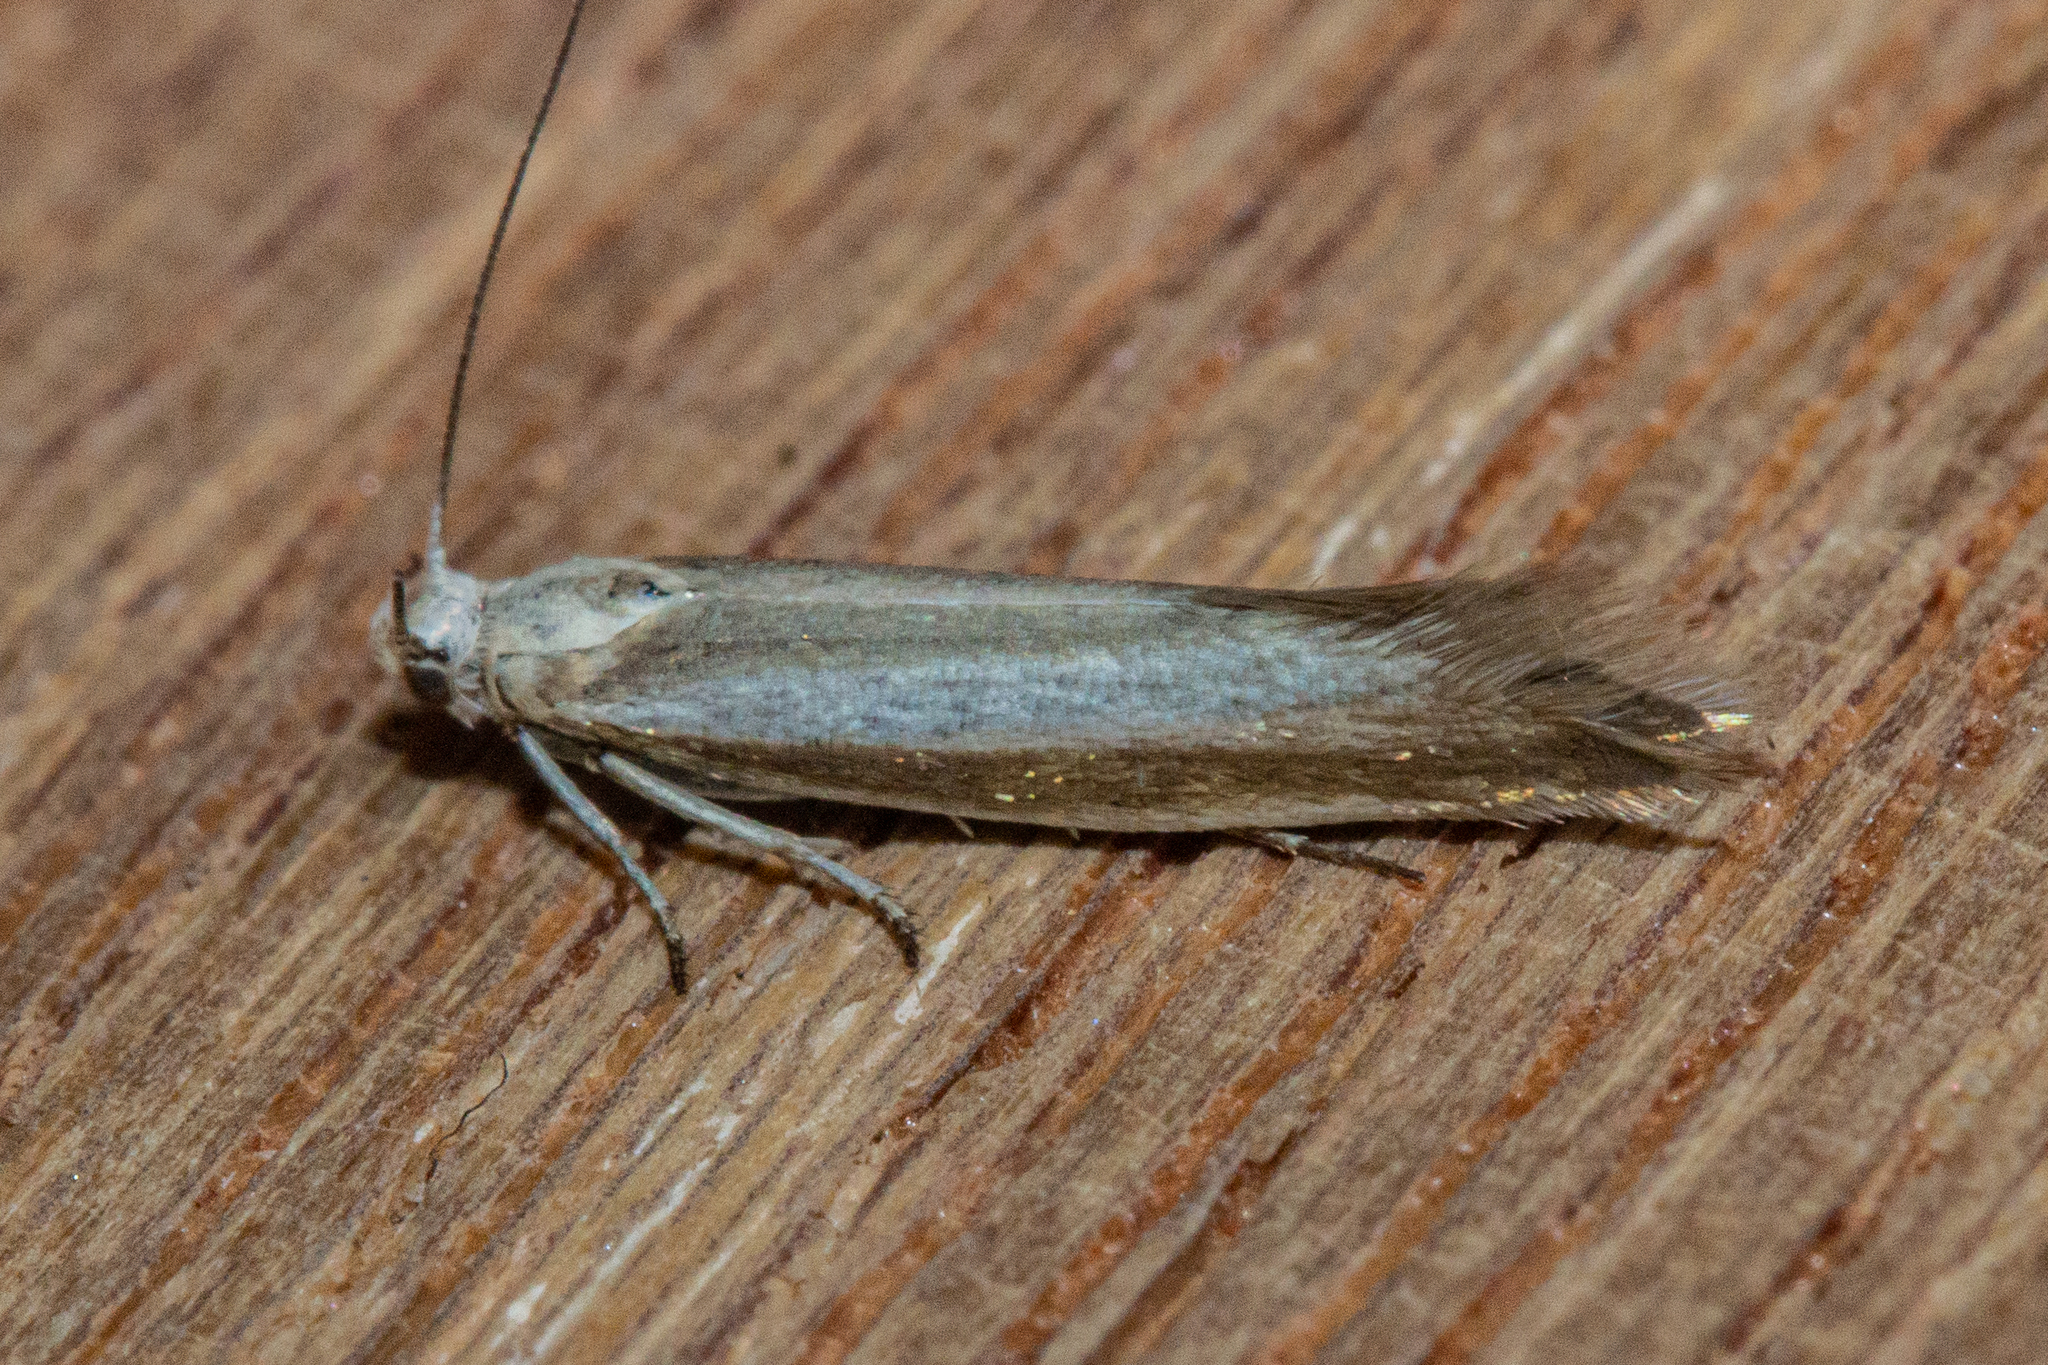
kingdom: Animalia
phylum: Arthropoda
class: Insecta
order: Lepidoptera
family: Glyphipterigidae
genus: Glyphipterix
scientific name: Glyphipterix cionophora
